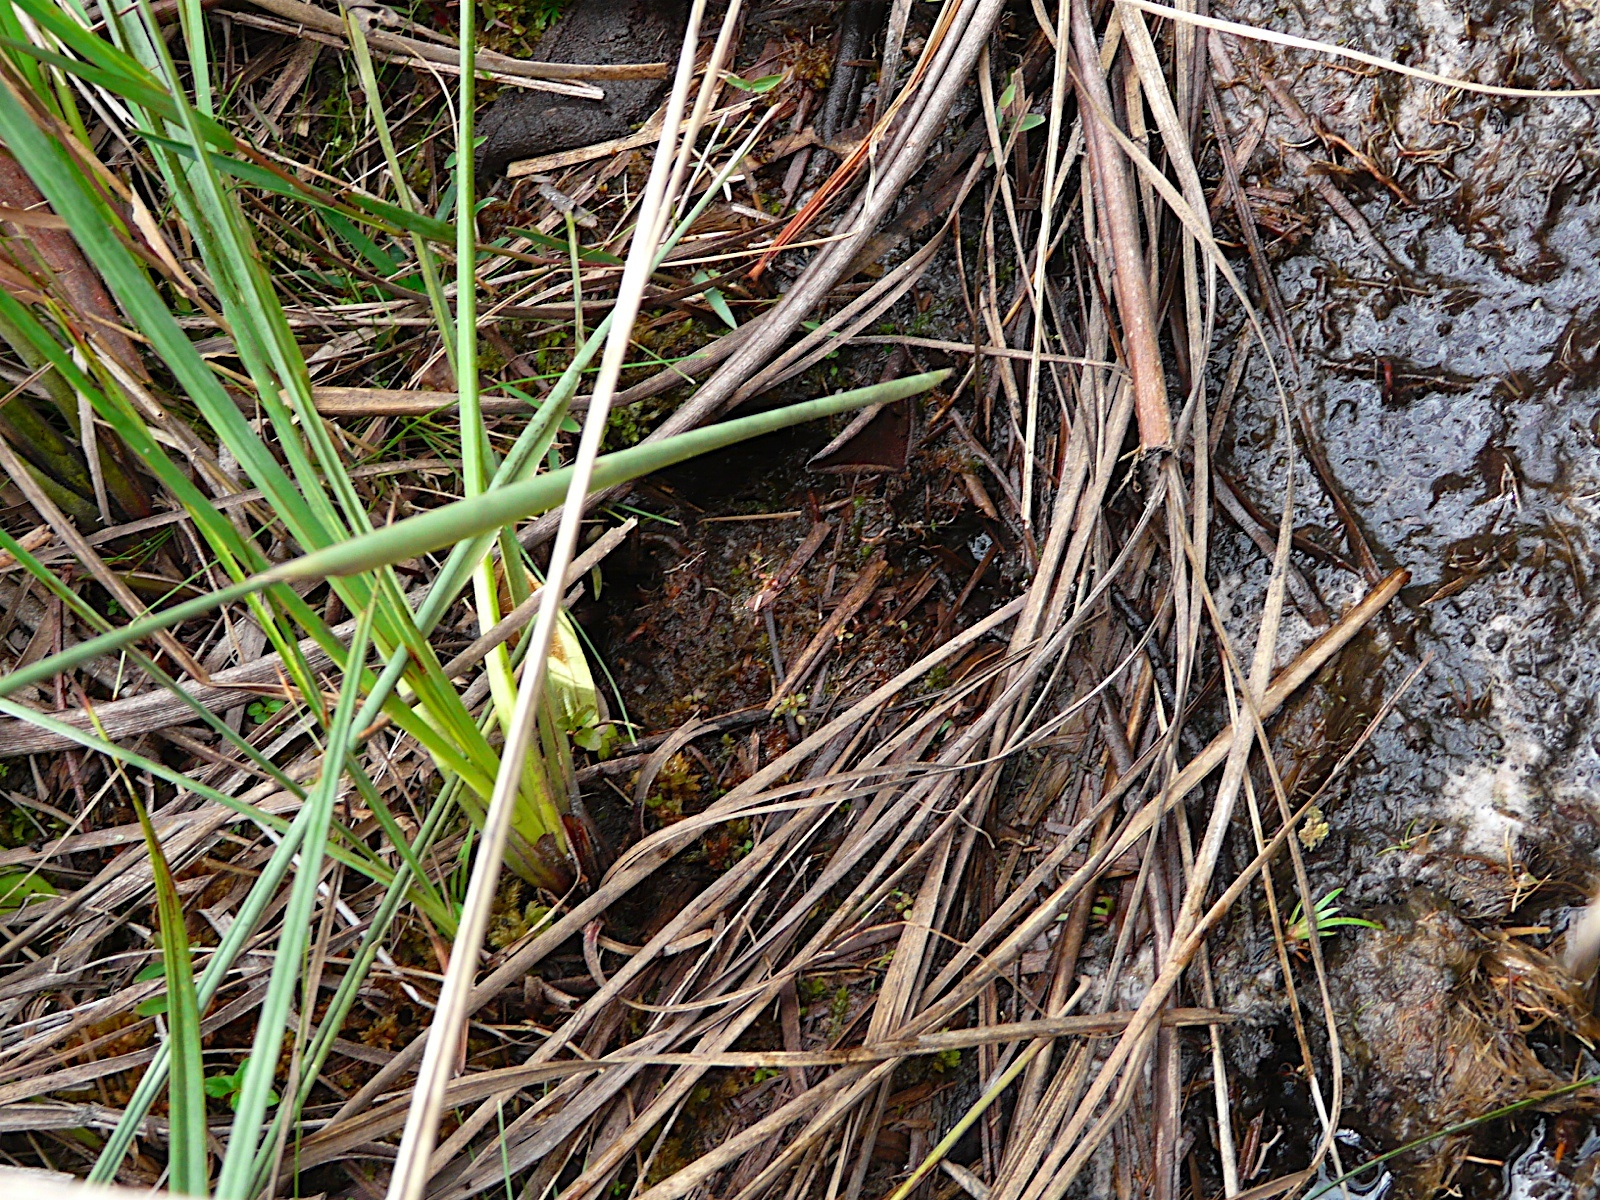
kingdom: Animalia
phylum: Chordata
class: Mammalia
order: Perissodactyla
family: Tapiridae
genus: Tapirus
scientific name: Tapirus terrestris
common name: Brazilian tapir
